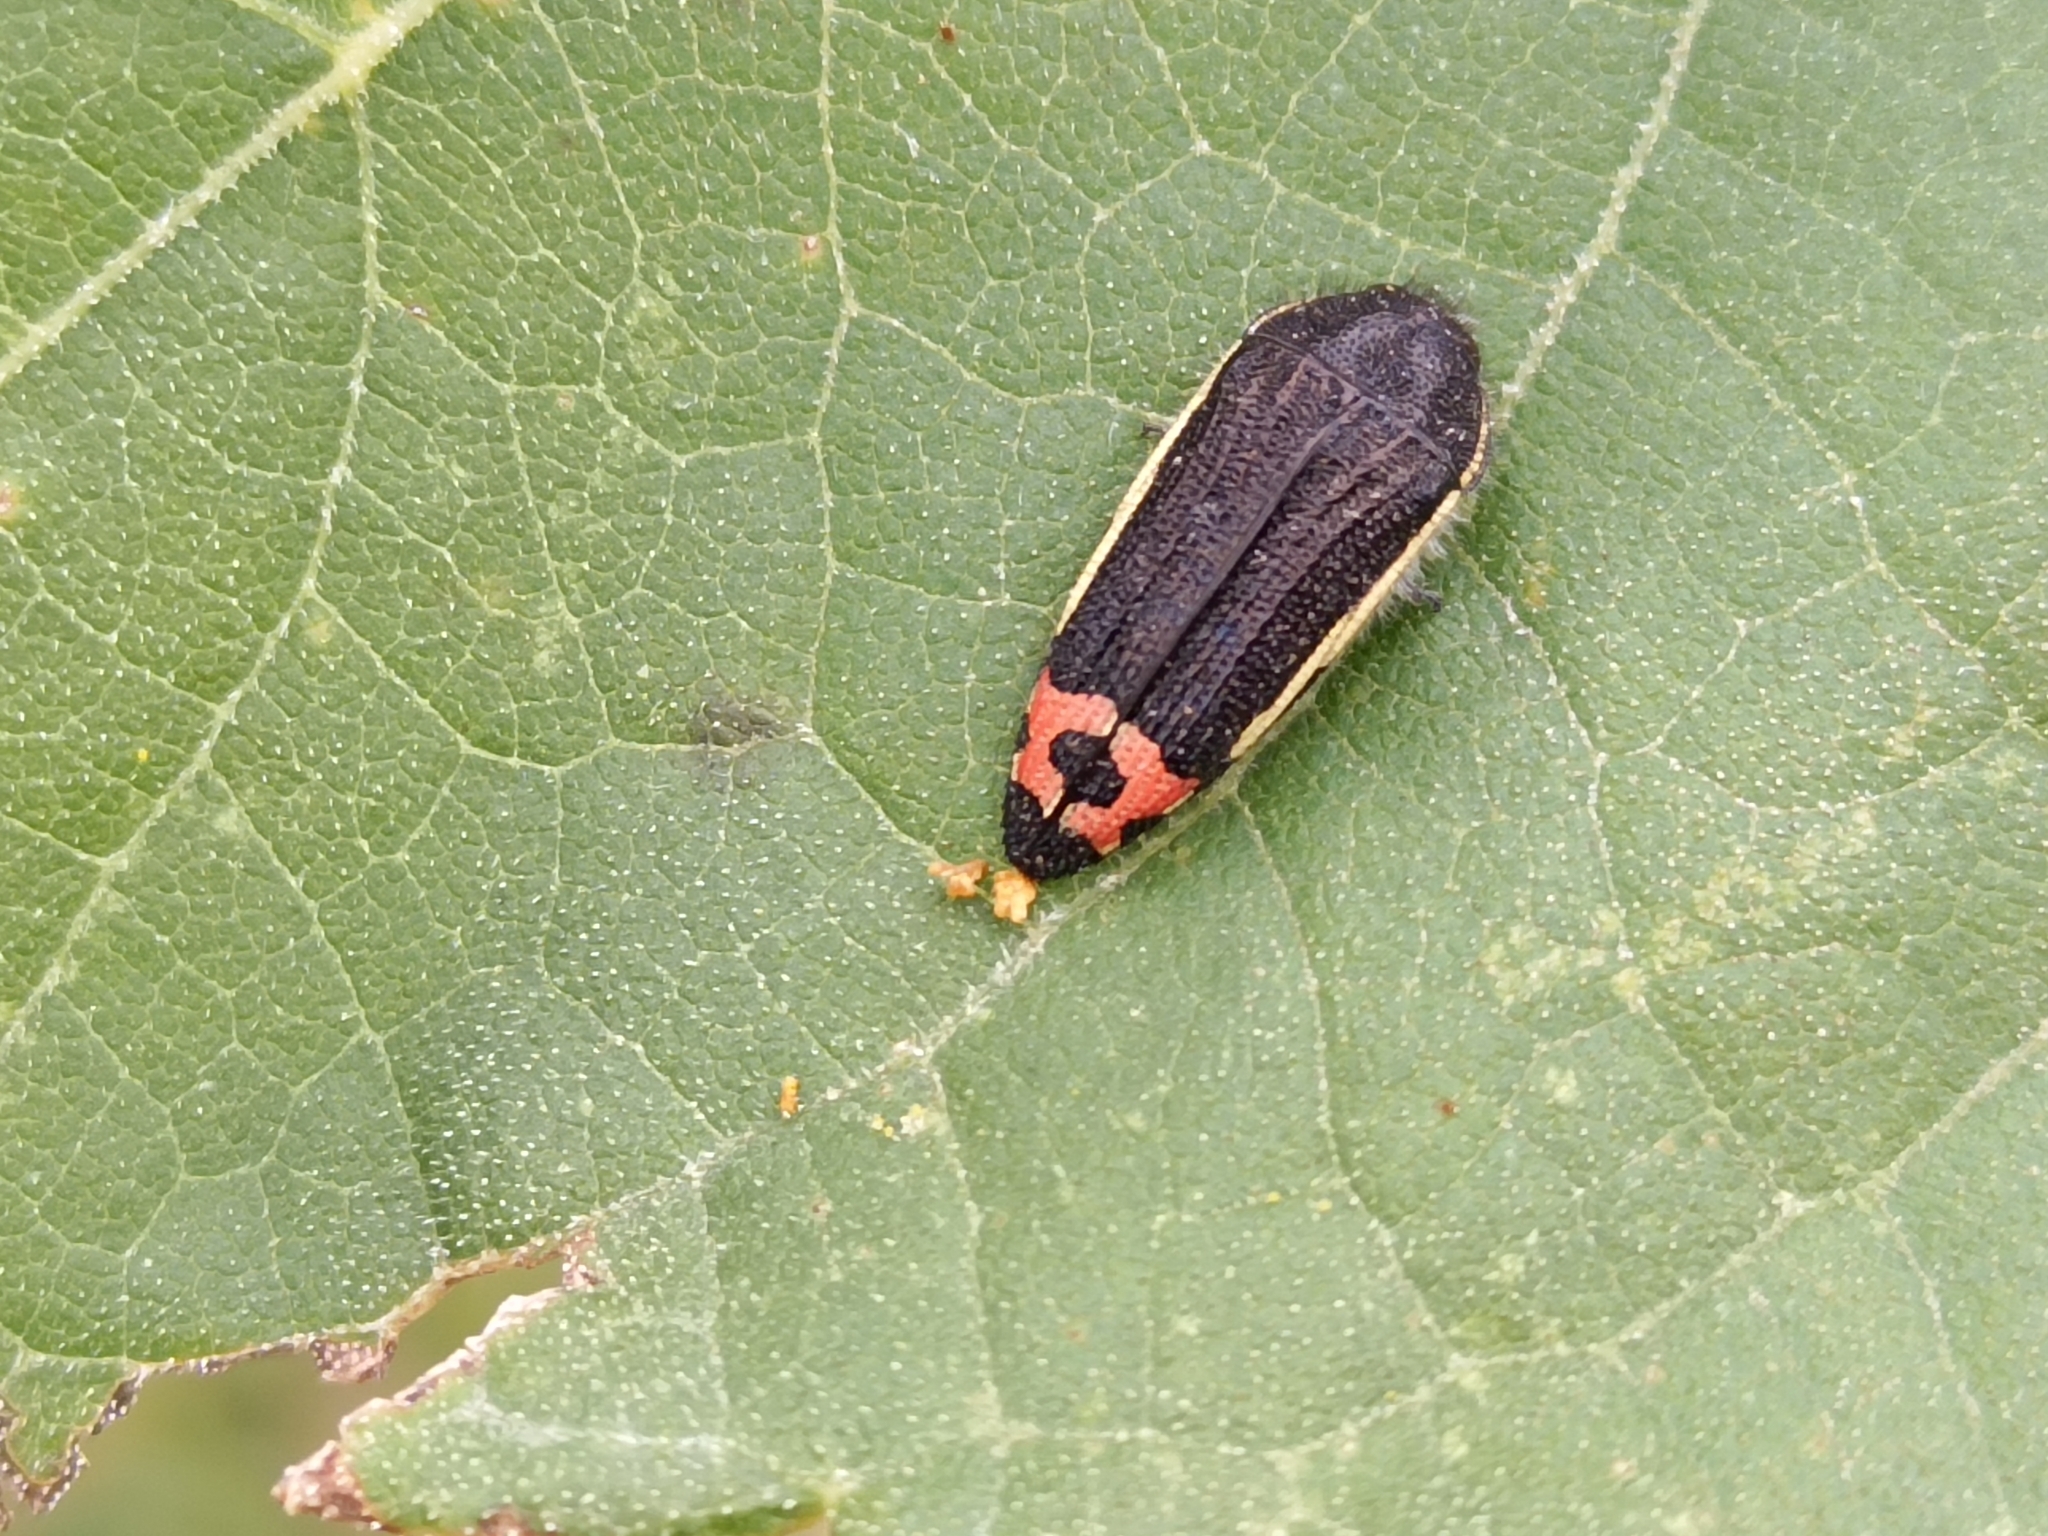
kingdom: Animalia
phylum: Arthropoda
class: Insecta
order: Coleoptera
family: Buprestidae
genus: Acmaeodera
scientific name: Acmaeodera flavomarginata
